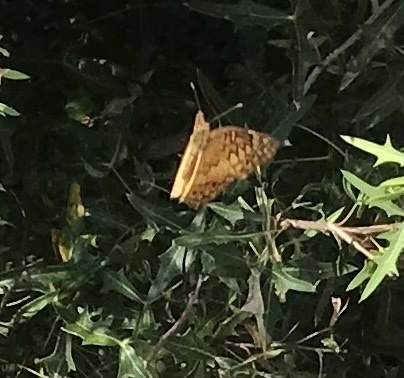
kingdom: Animalia
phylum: Arthropoda
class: Insecta
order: Lepidoptera
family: Nymphalidae
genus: Euptoieta
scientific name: Euptoieta claudia
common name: Variegated fritillary
